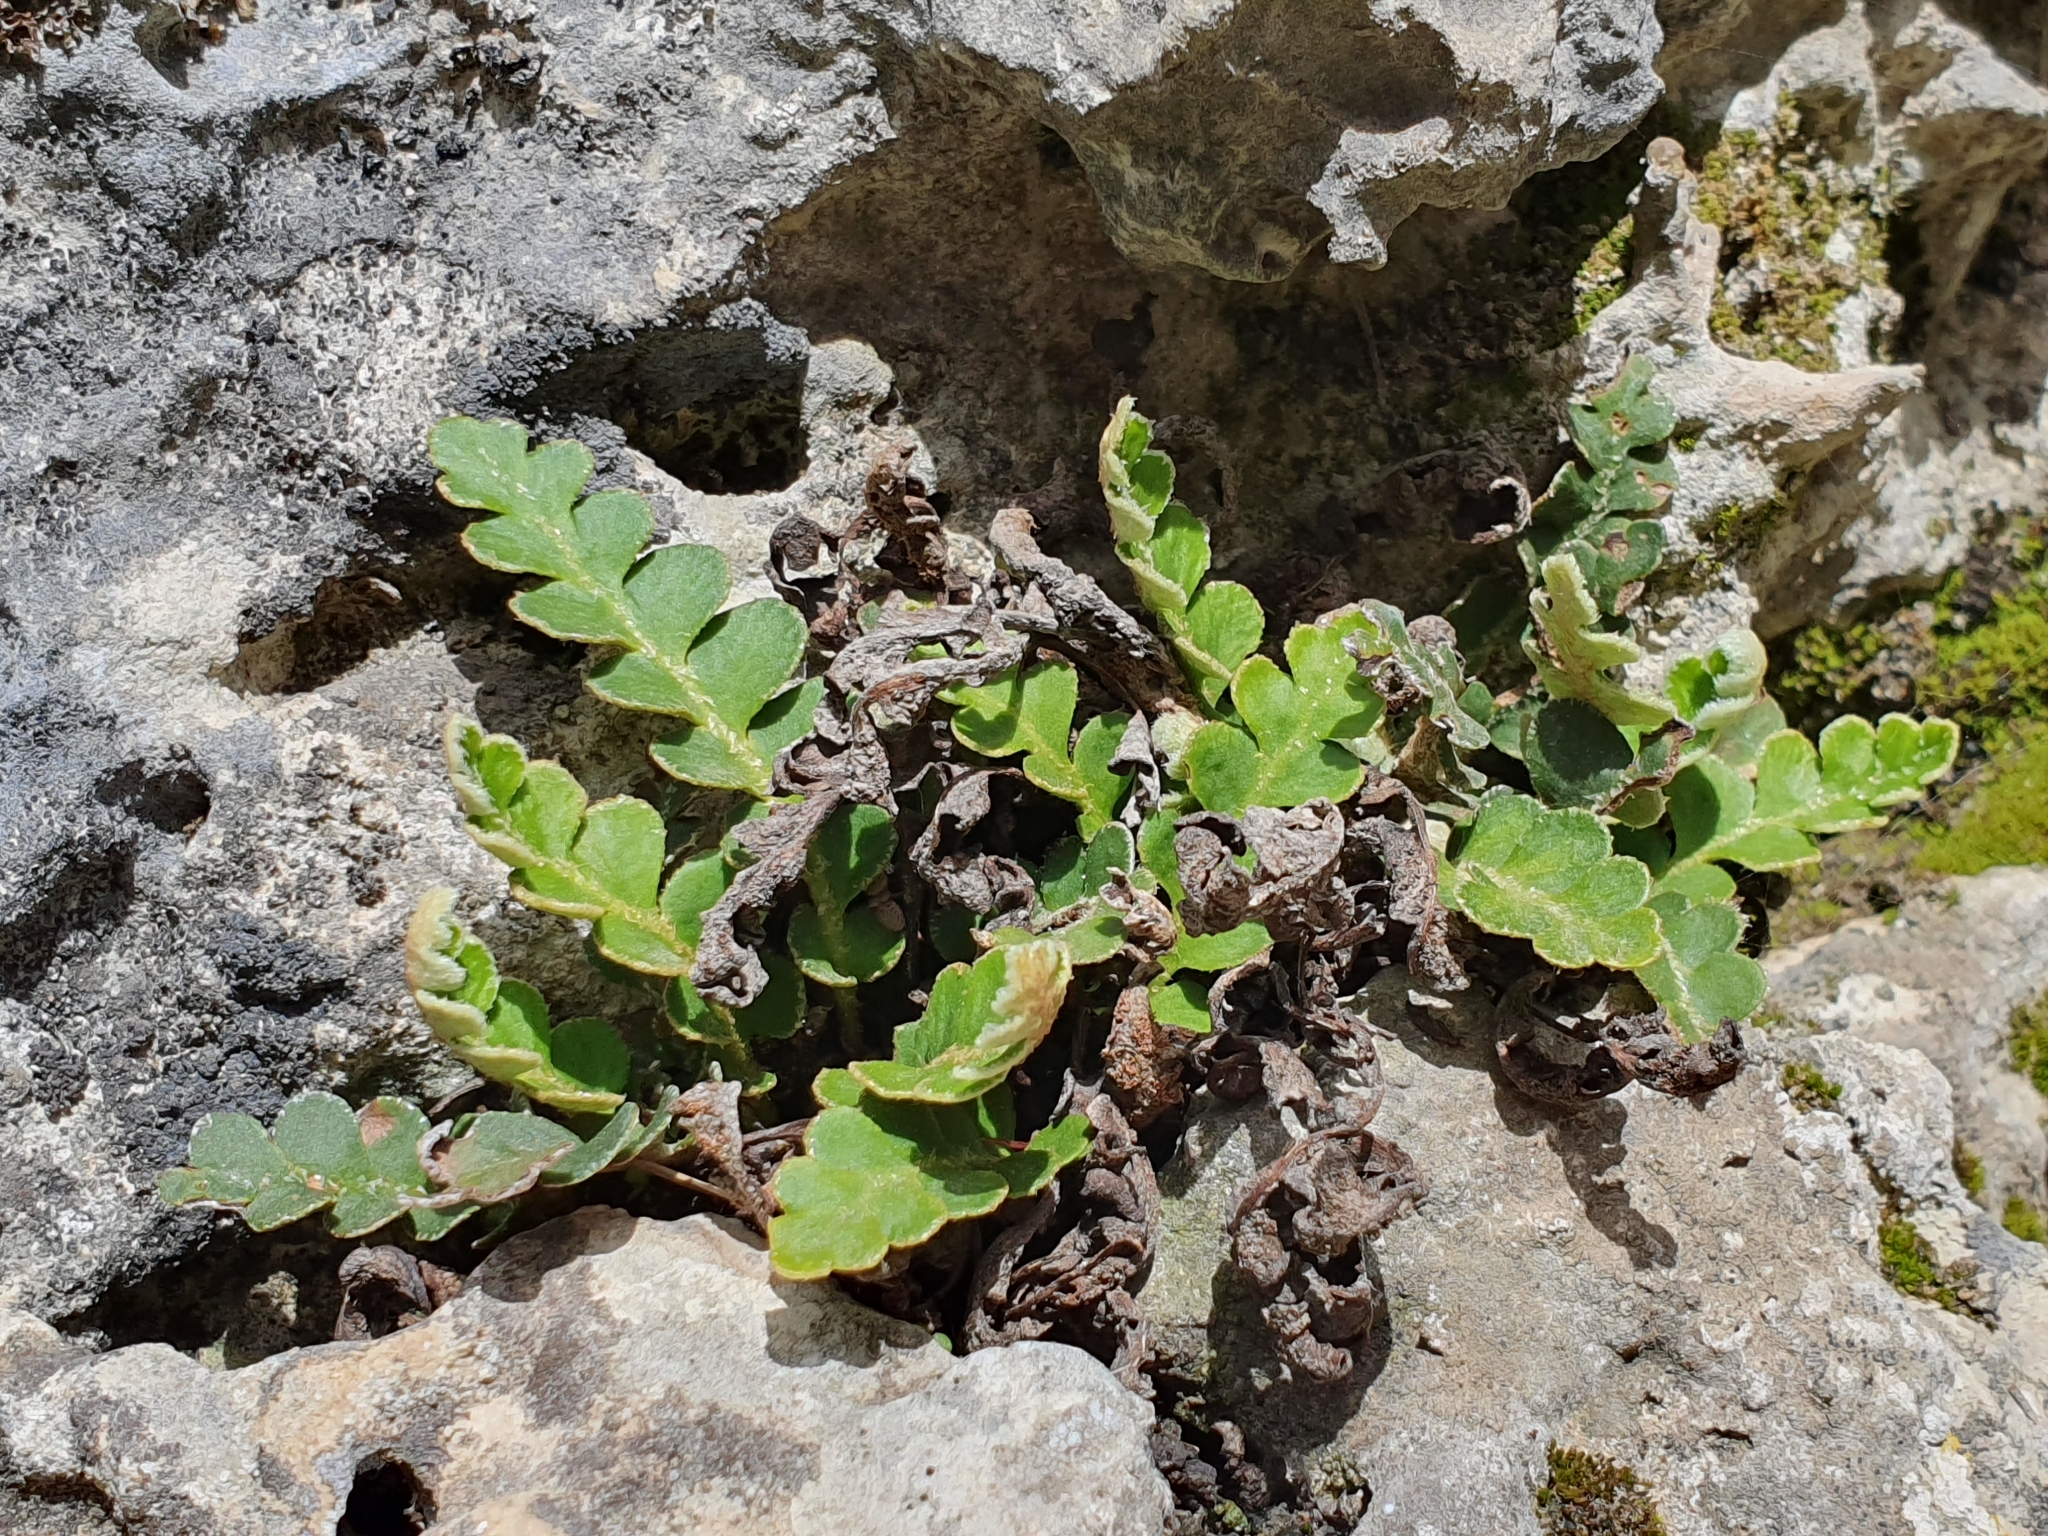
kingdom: Plantae
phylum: Tracheophyta
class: Polypodiopsida
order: Polypodiales
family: Aspleniaceae
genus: Asplenium
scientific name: Asplenium ceterach
